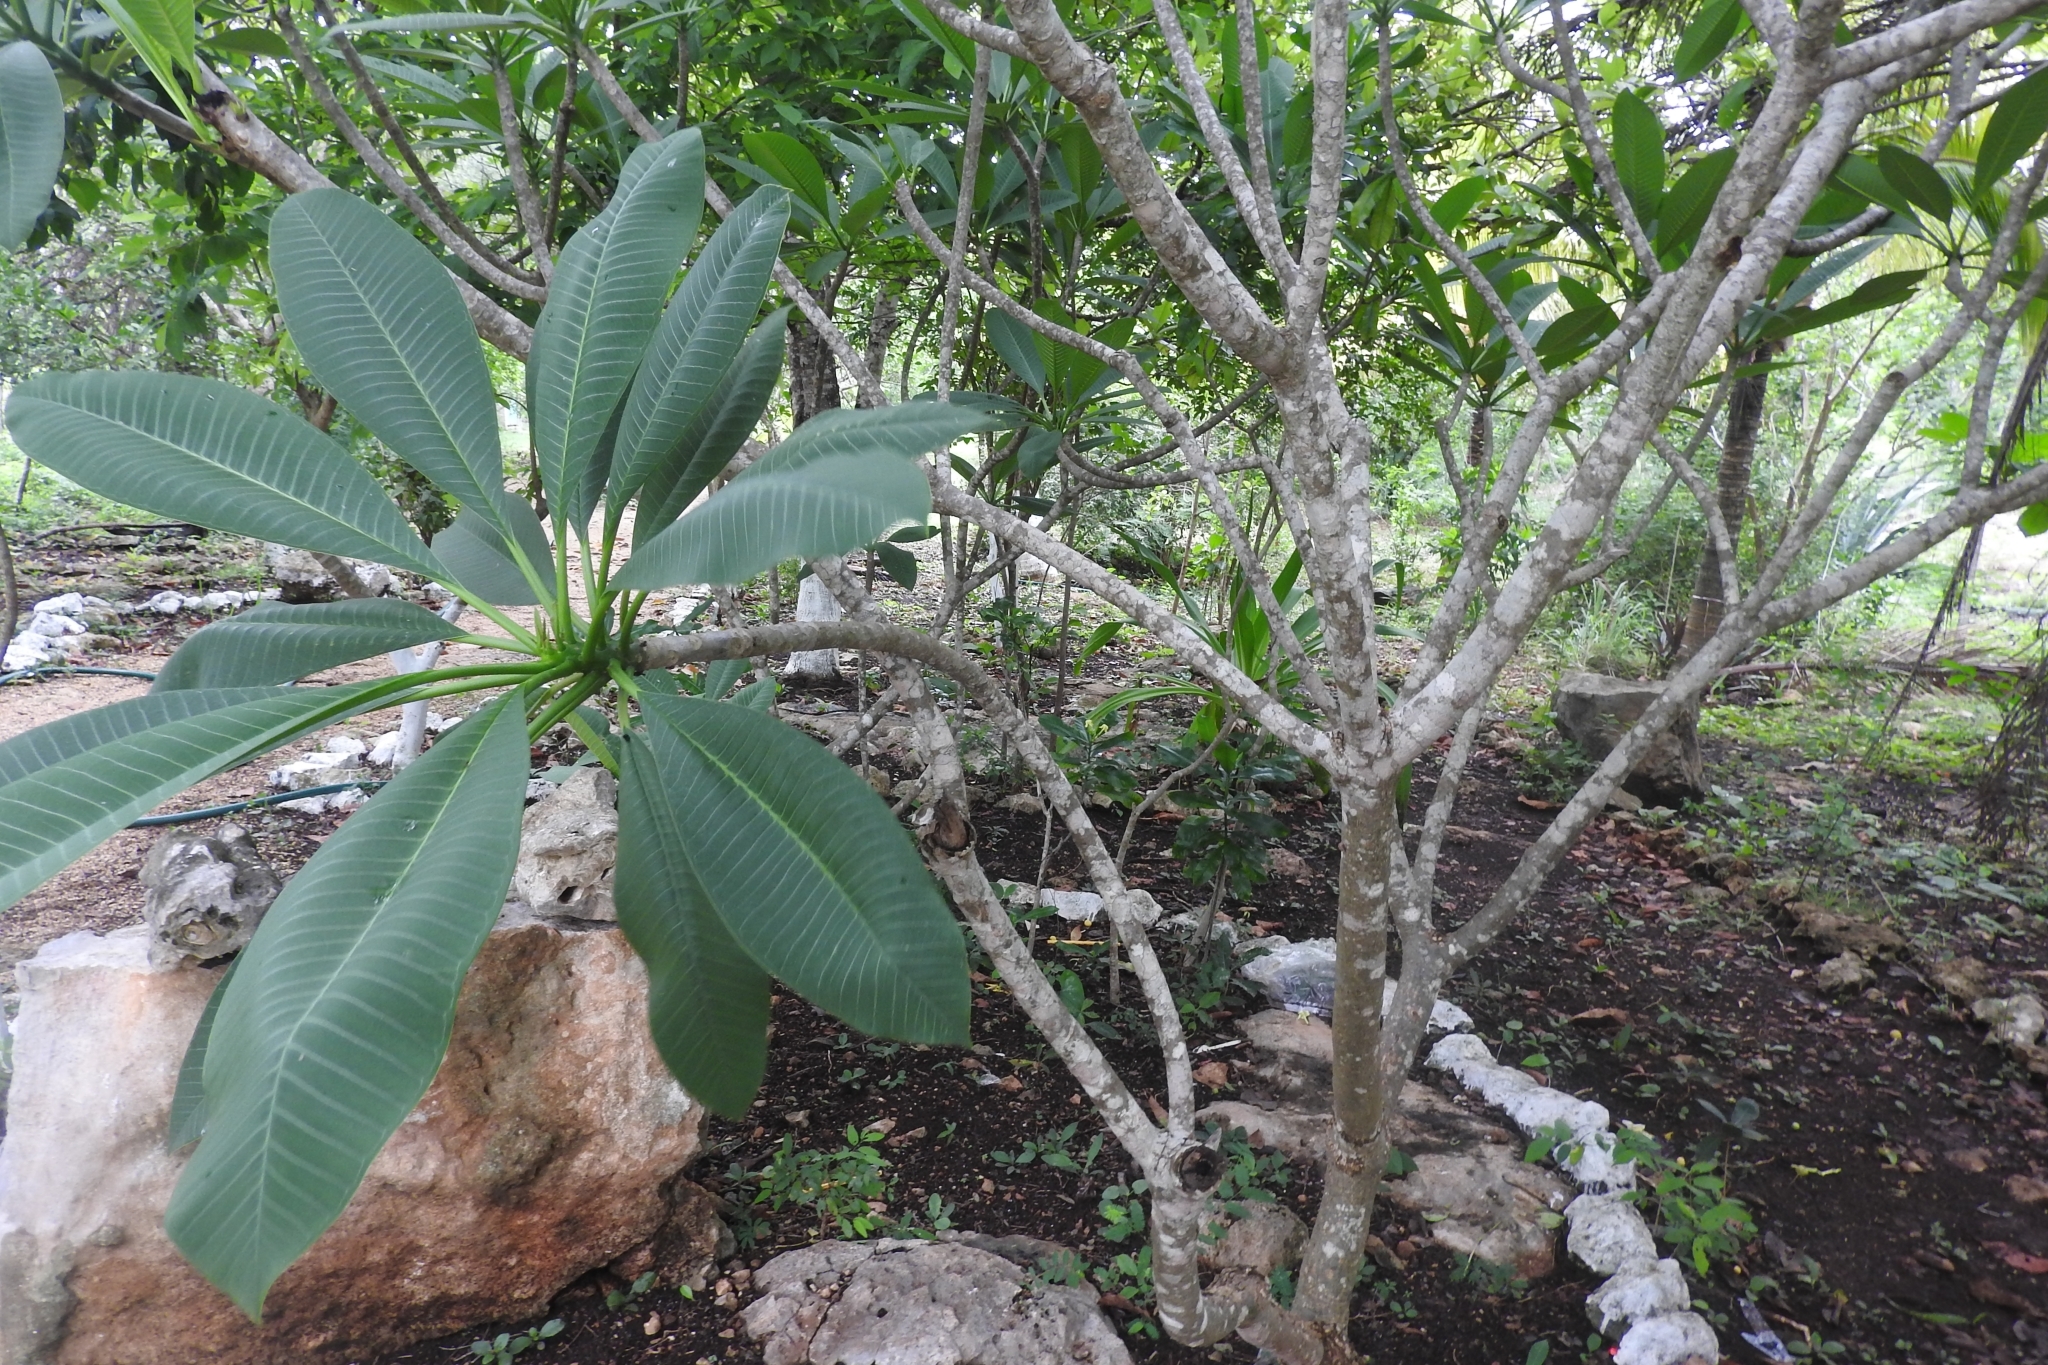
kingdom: Plantae
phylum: Tracheophyta
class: Magnoliopsida
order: Gentianales
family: Apocynaceae
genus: Plumeria
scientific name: Plumeria rubra
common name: Pagoda-tree
